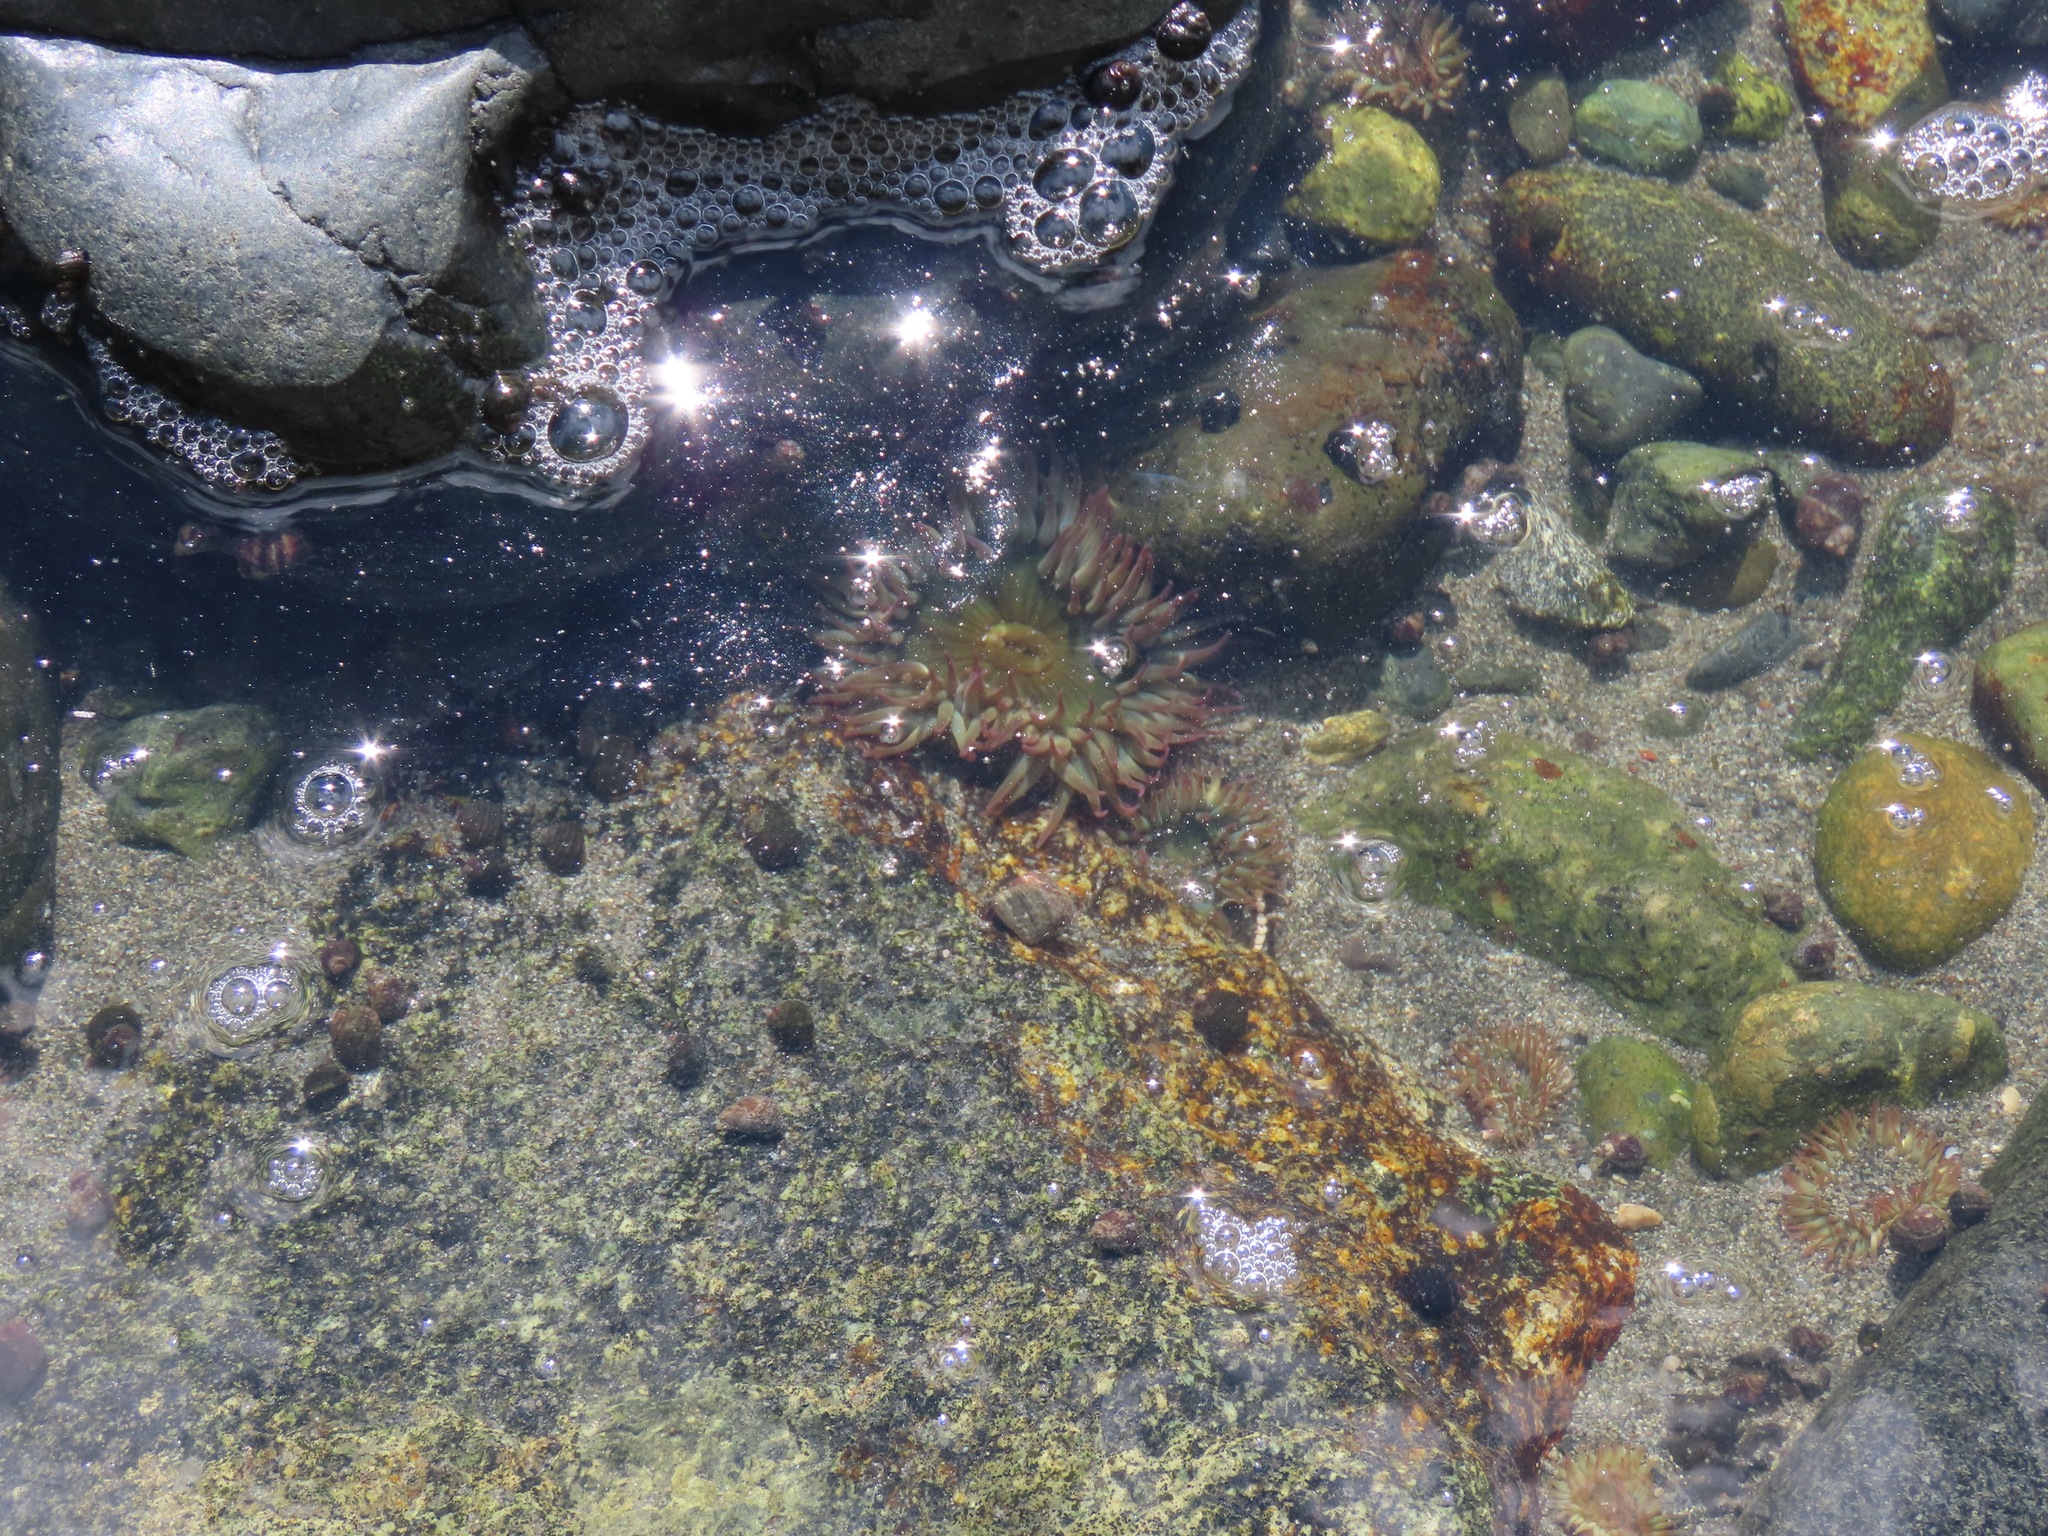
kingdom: Animalia
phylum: Cnidaria
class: Anthozoa
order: Actiniaria
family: Actiniidae
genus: Anthopleura
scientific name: Anthopleura elegantissima
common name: Clonal anemone
